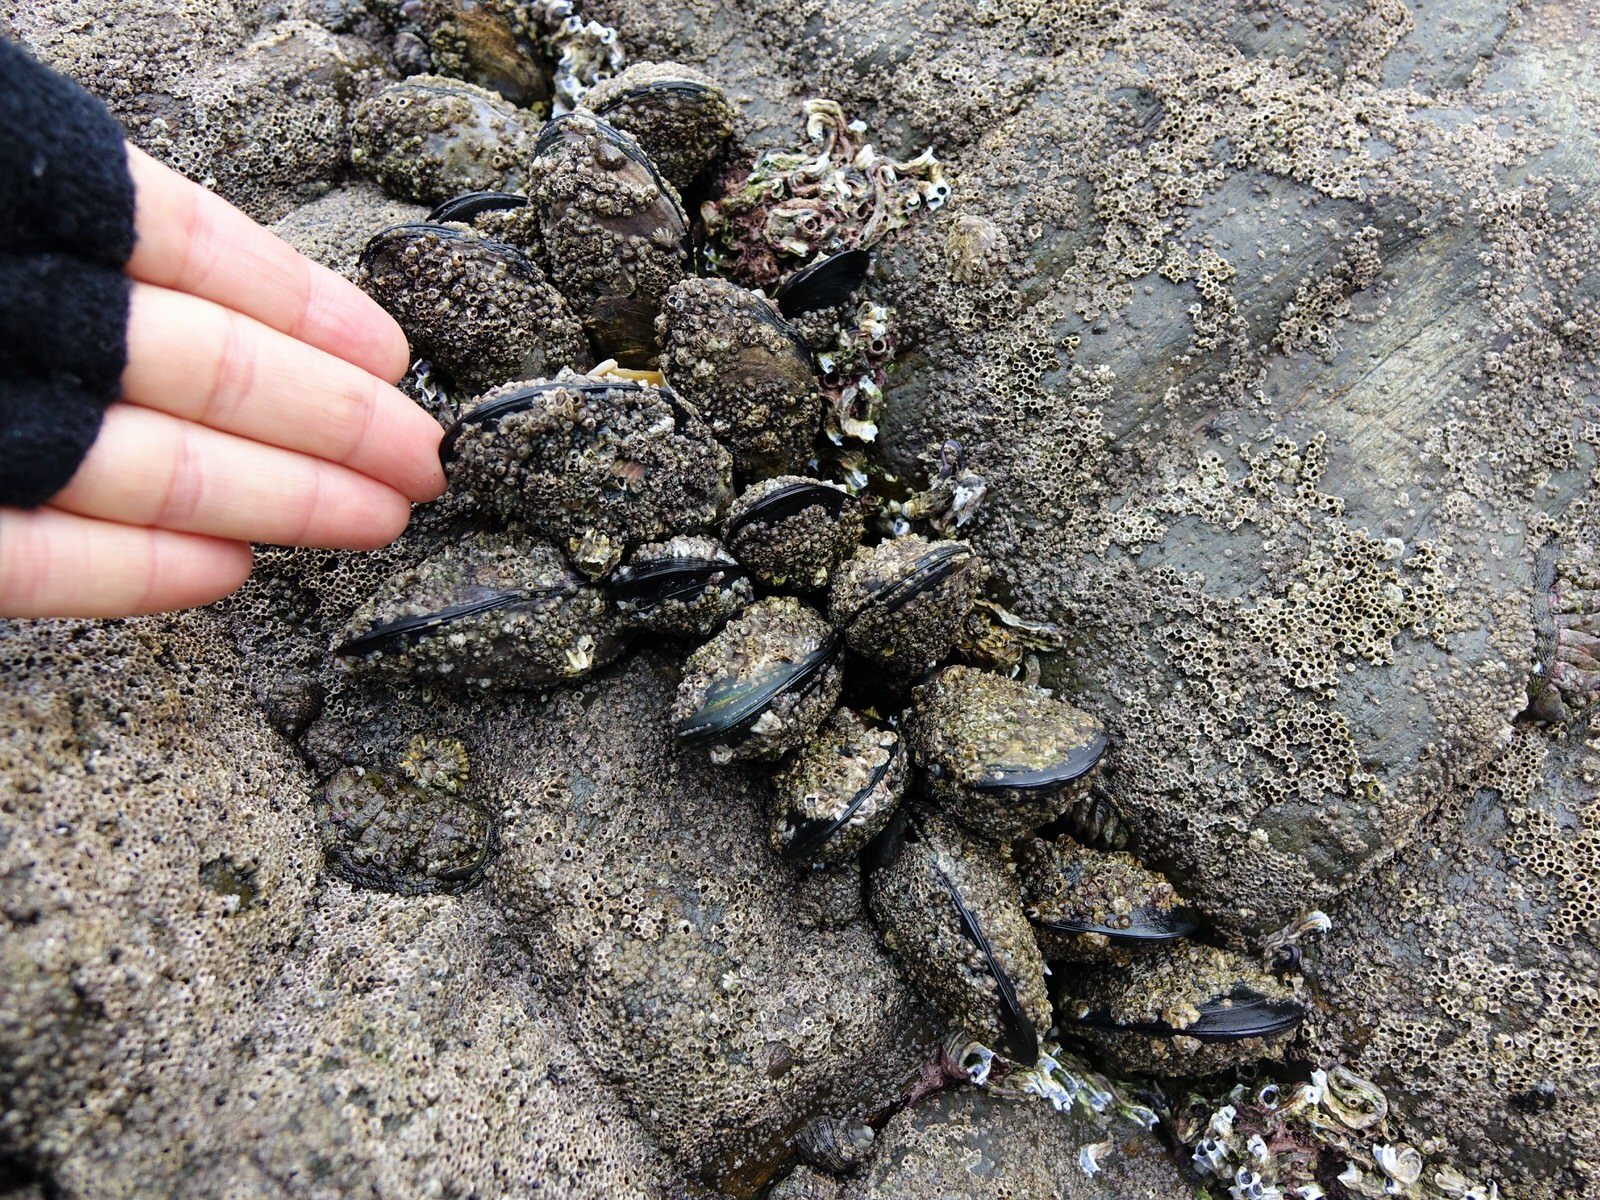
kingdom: Animalia
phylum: Mollusca
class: Bivalvia
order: Mytilida
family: Mytilidae
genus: Perna
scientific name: Perna canaliculus
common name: New zealand greenshelltm
